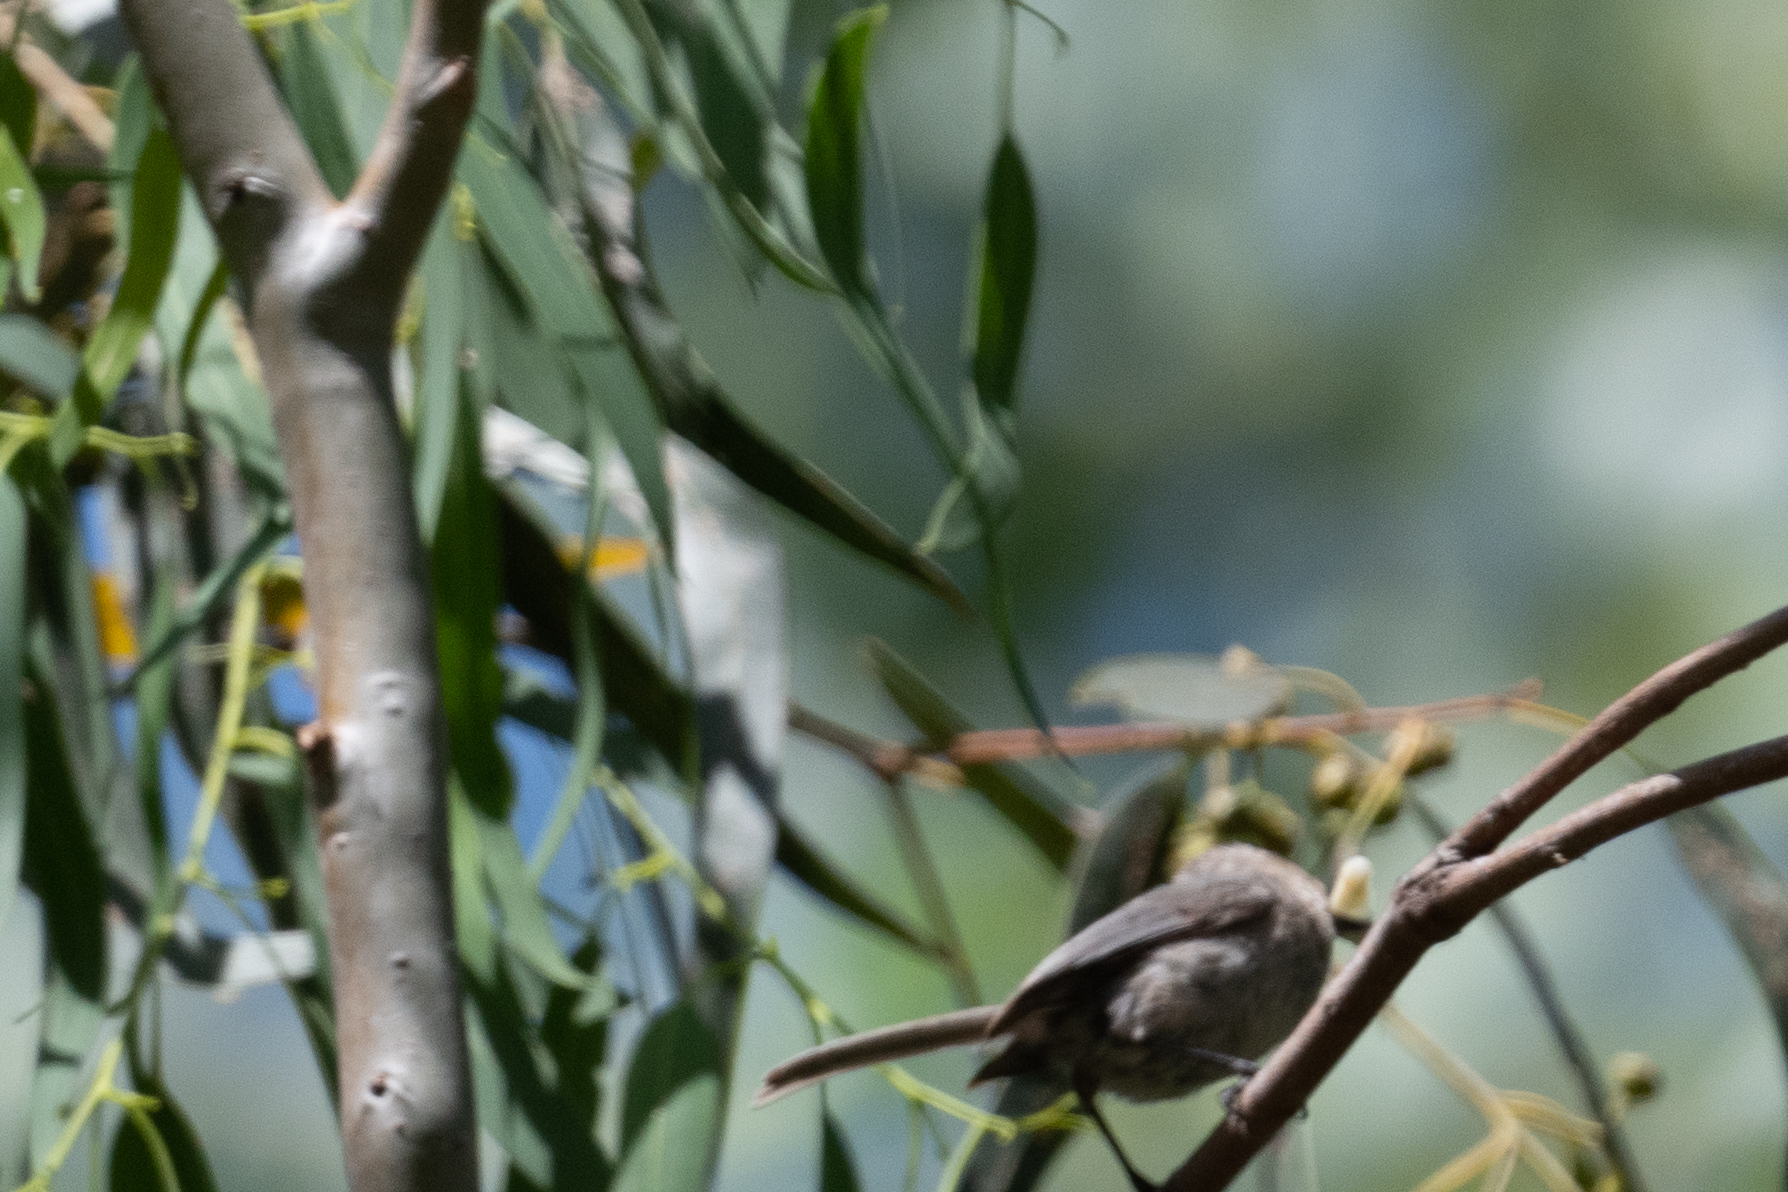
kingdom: Animalia
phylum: Chordata
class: Aves
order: Passeriformes
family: Aegithalidae
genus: Psaltriparus
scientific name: Psaltriparus minimus
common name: American bushtit
